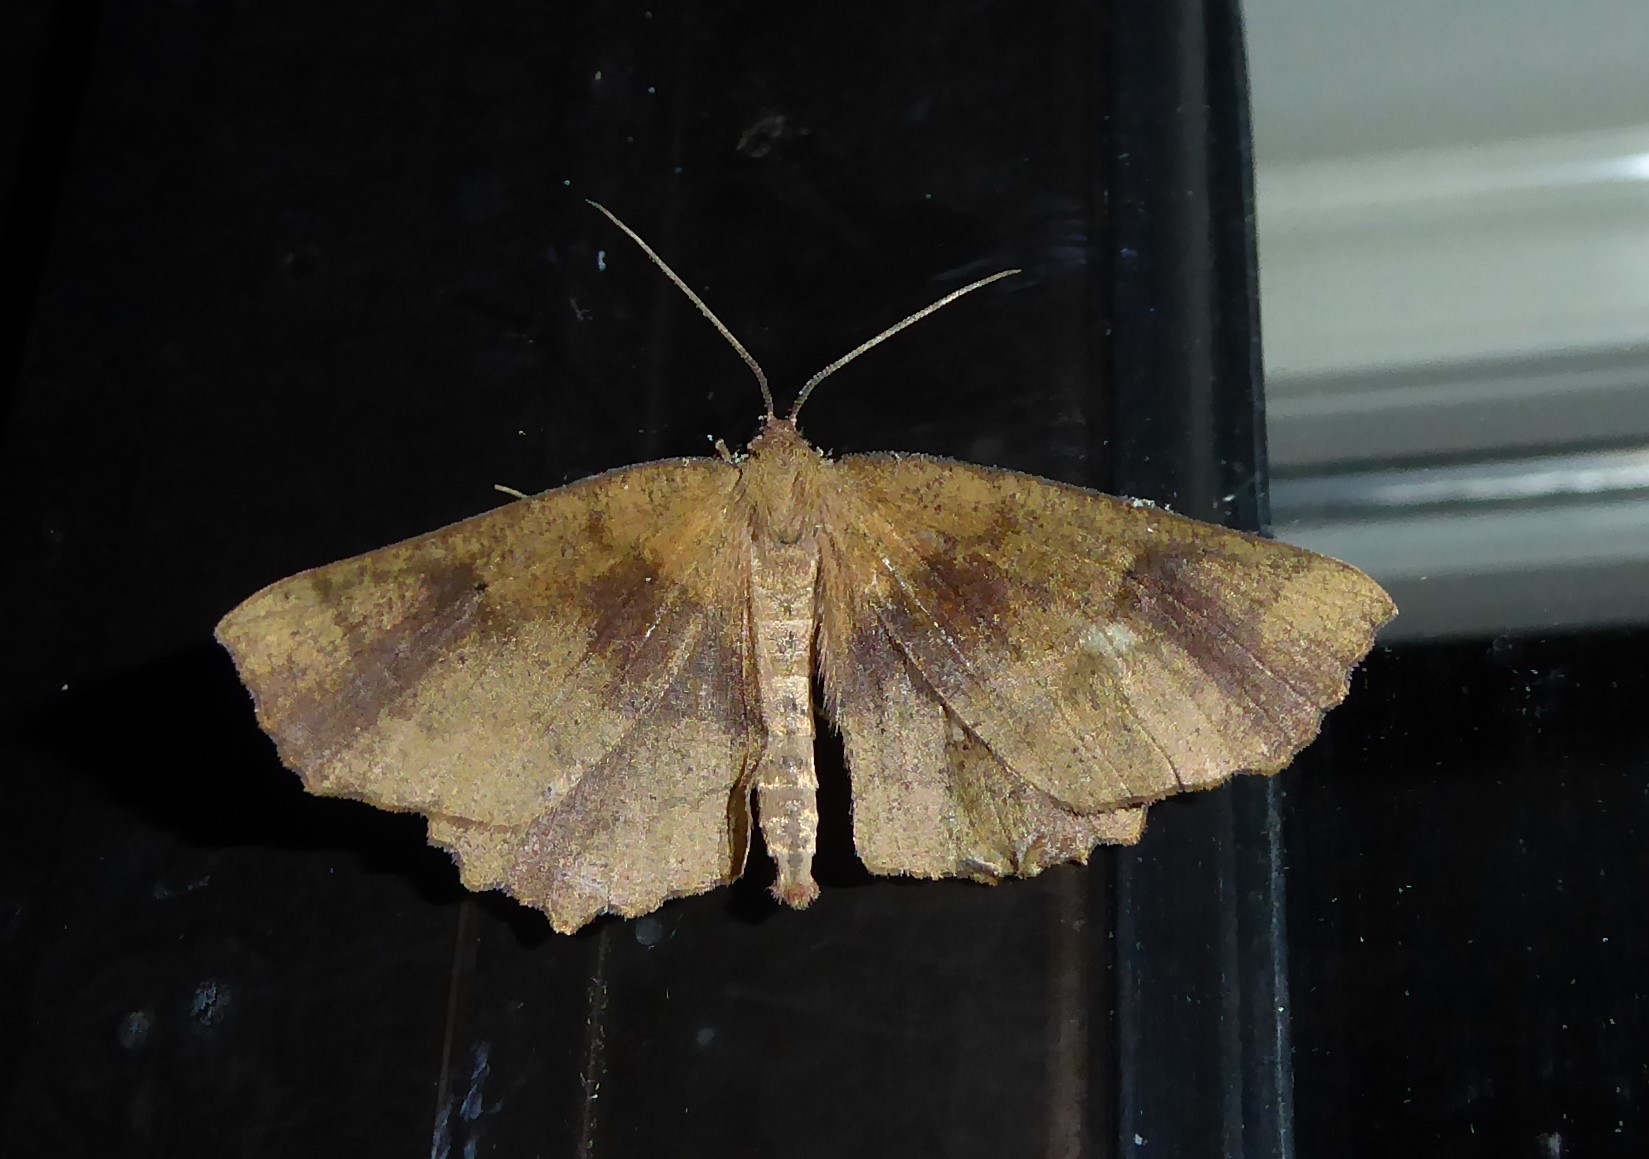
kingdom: Animalia
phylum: Arthropoda
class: Insecta
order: Lepidoptera
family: Geometridae
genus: Xyridacma
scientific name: Xyridacma ustaria
